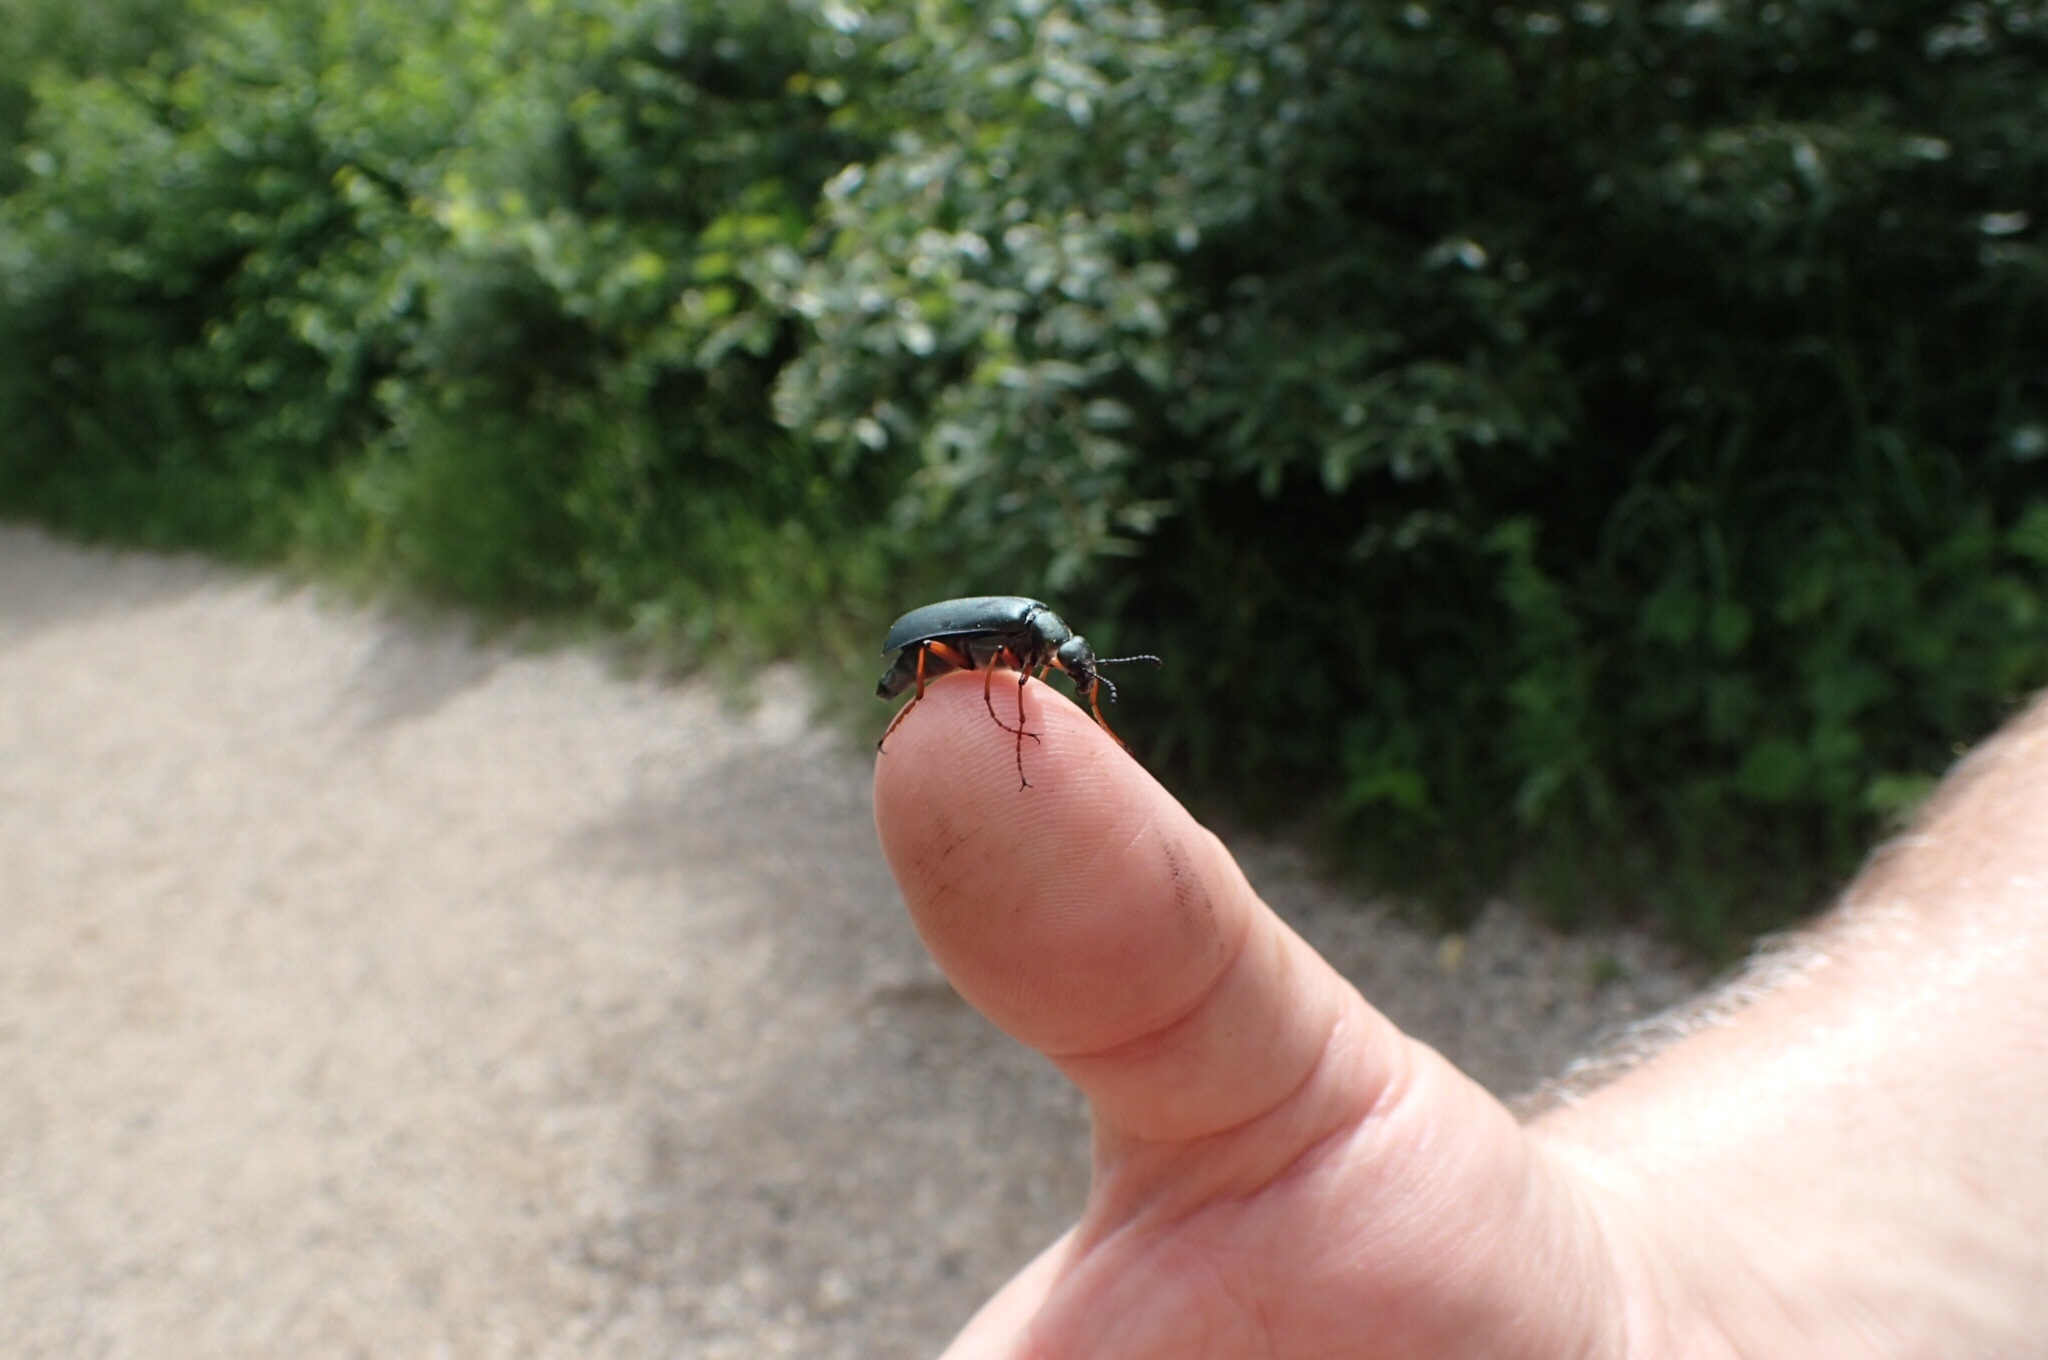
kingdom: Animalia
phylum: Arthropoda
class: Insecta
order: Coleoptera
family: Meloidae
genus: Lytta
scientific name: Lytta sayi
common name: Say's blister beetle
